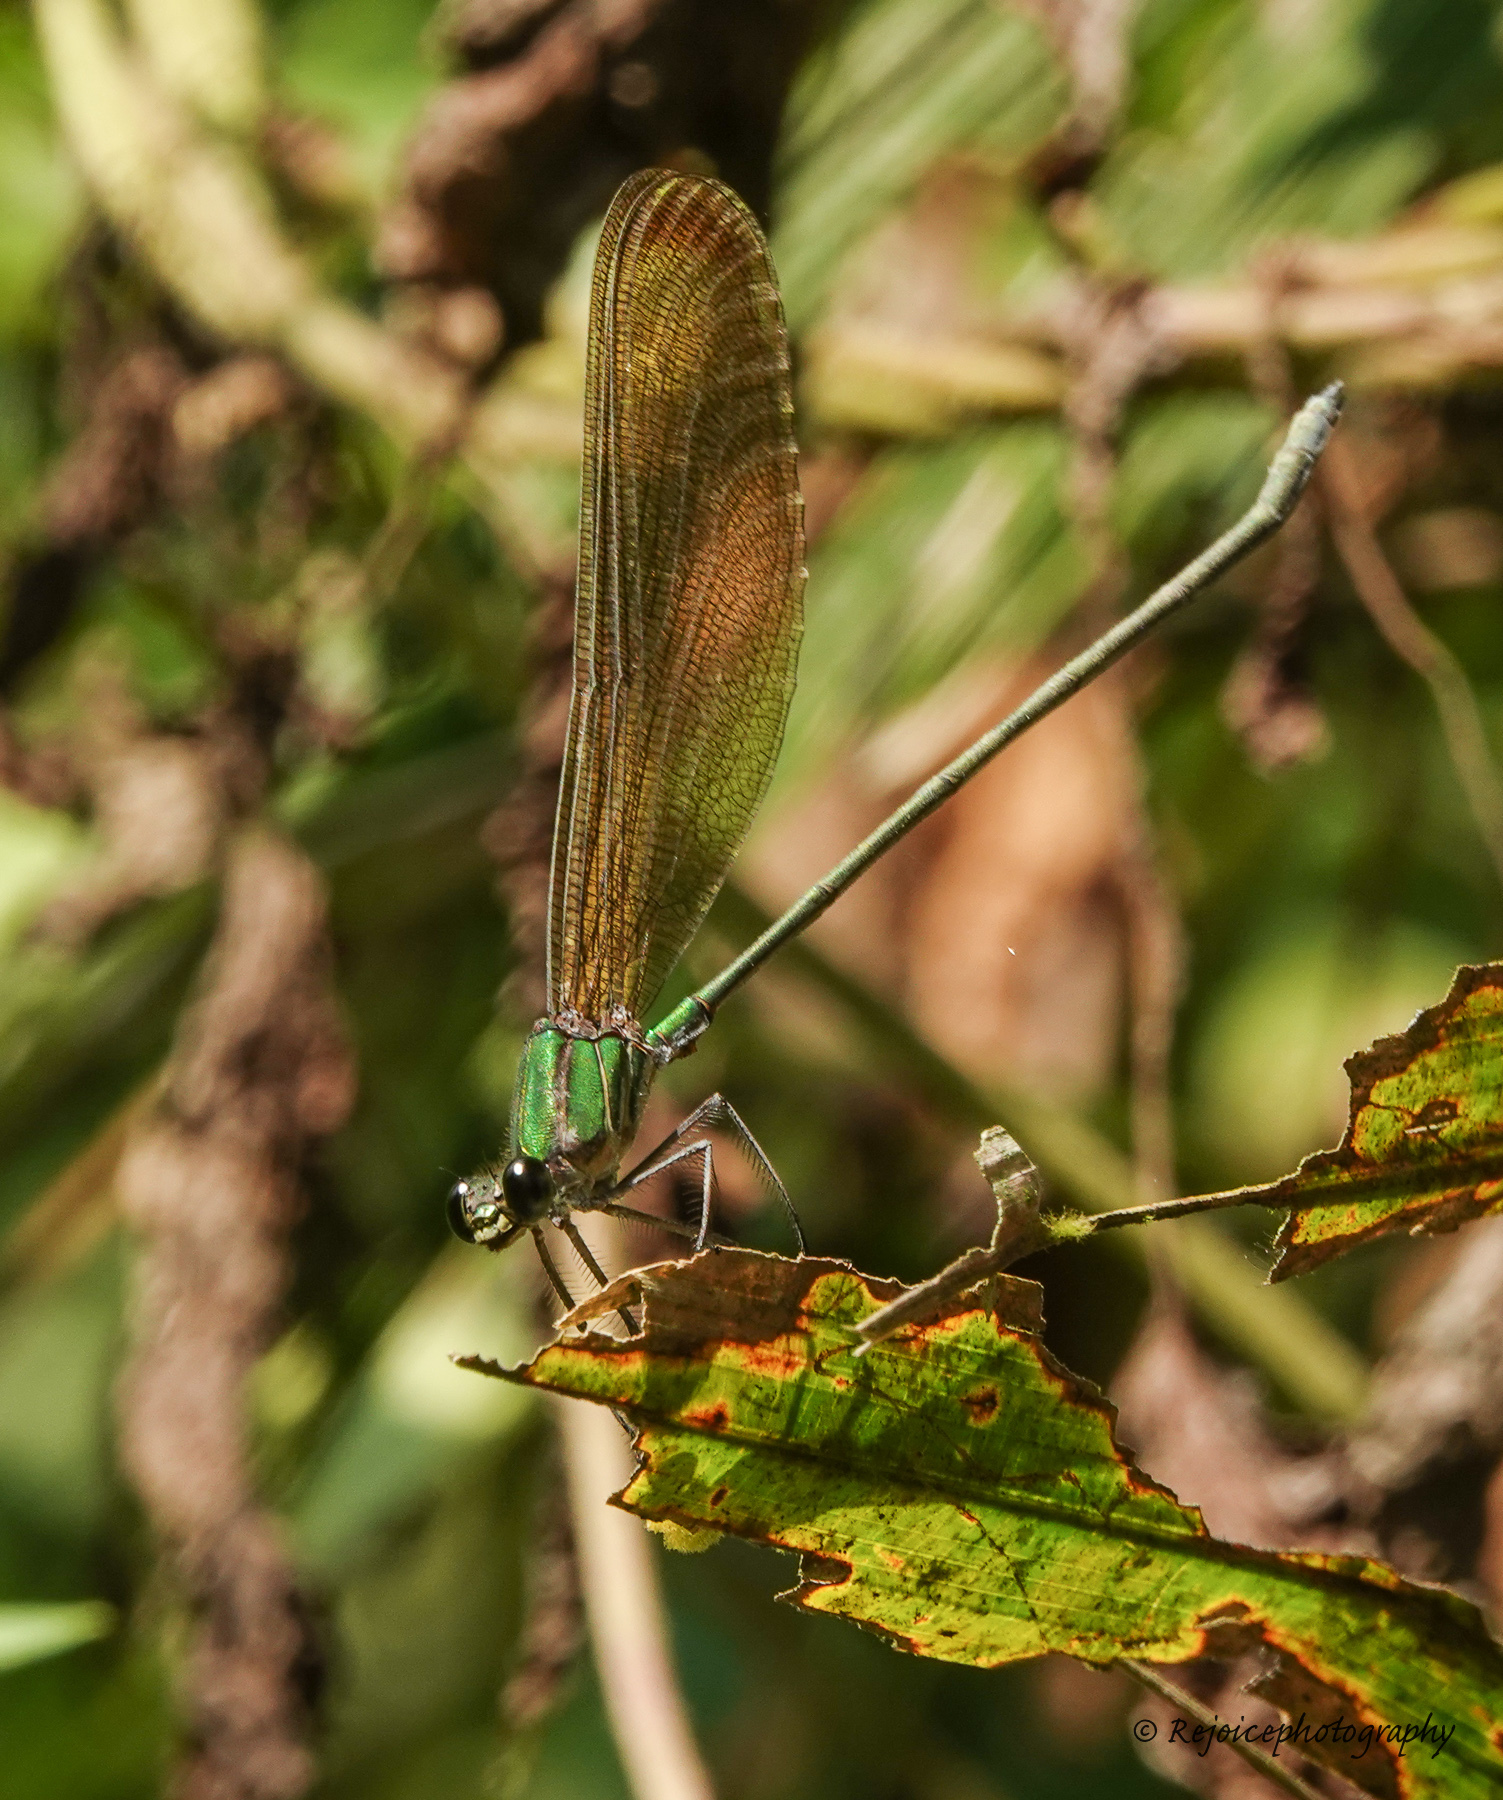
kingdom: Animalia
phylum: Arthropoda
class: Insecta
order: Odonata
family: Calopterygidae
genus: Vestalis
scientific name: Vestalis gracilis
